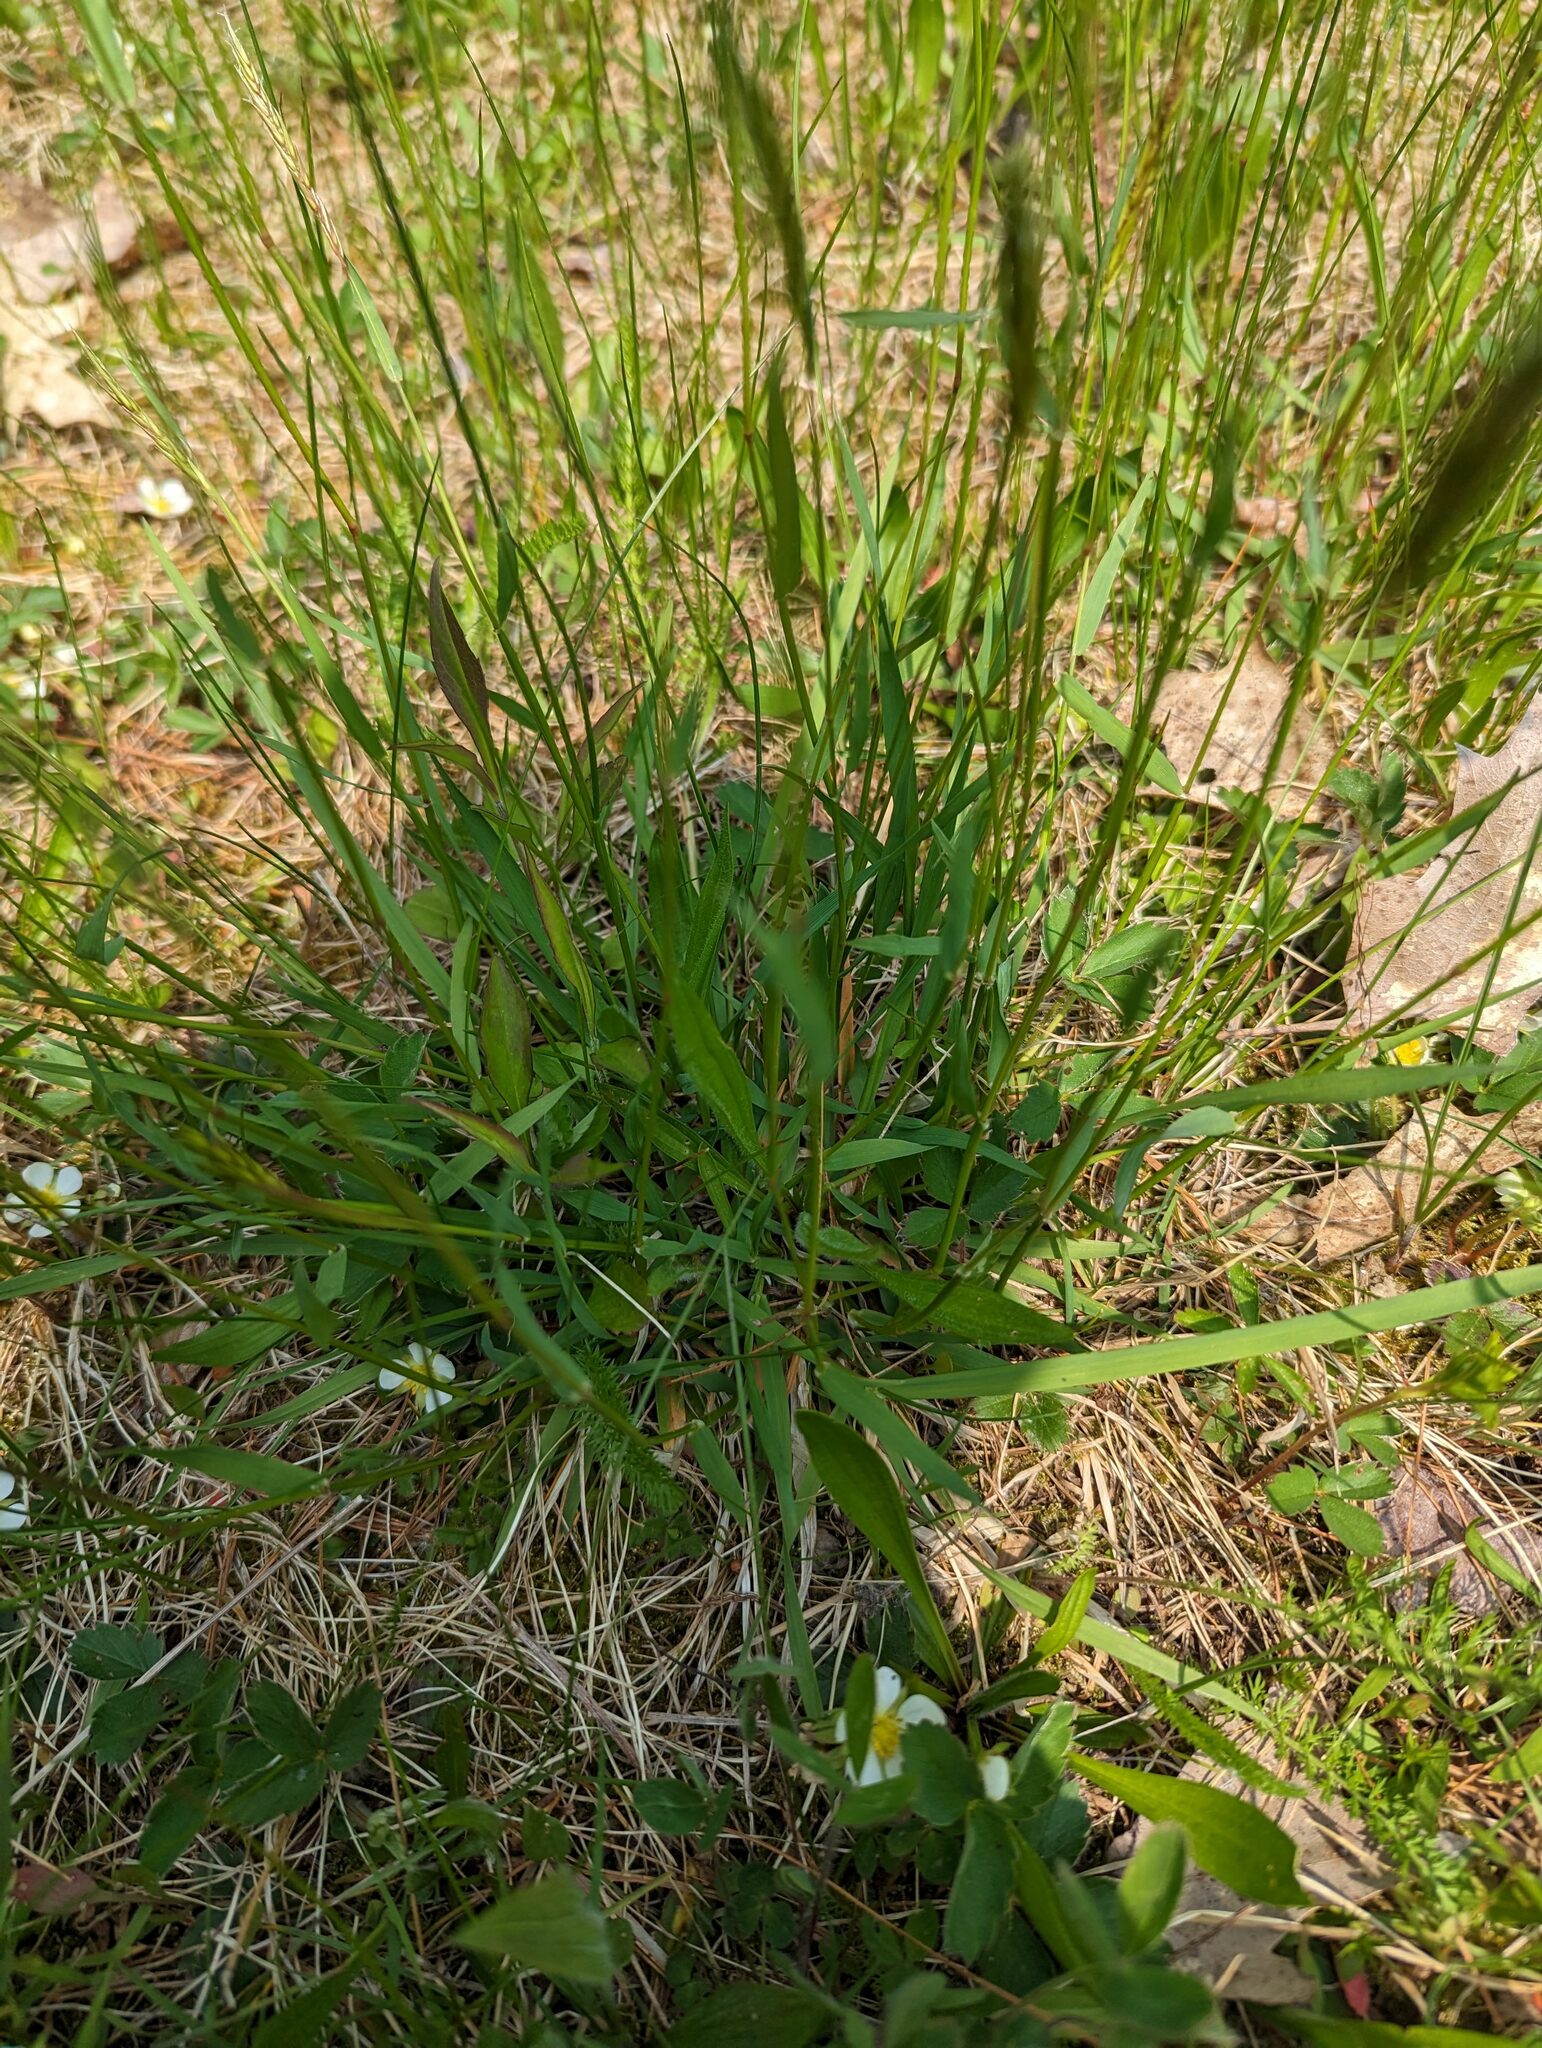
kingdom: Plantae
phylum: Tracheophyta
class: Liliopsida
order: Poales
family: Poaceae
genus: Anthoxanthum
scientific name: Anthoxanthum odoratum
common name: Sweet vernalgrass
